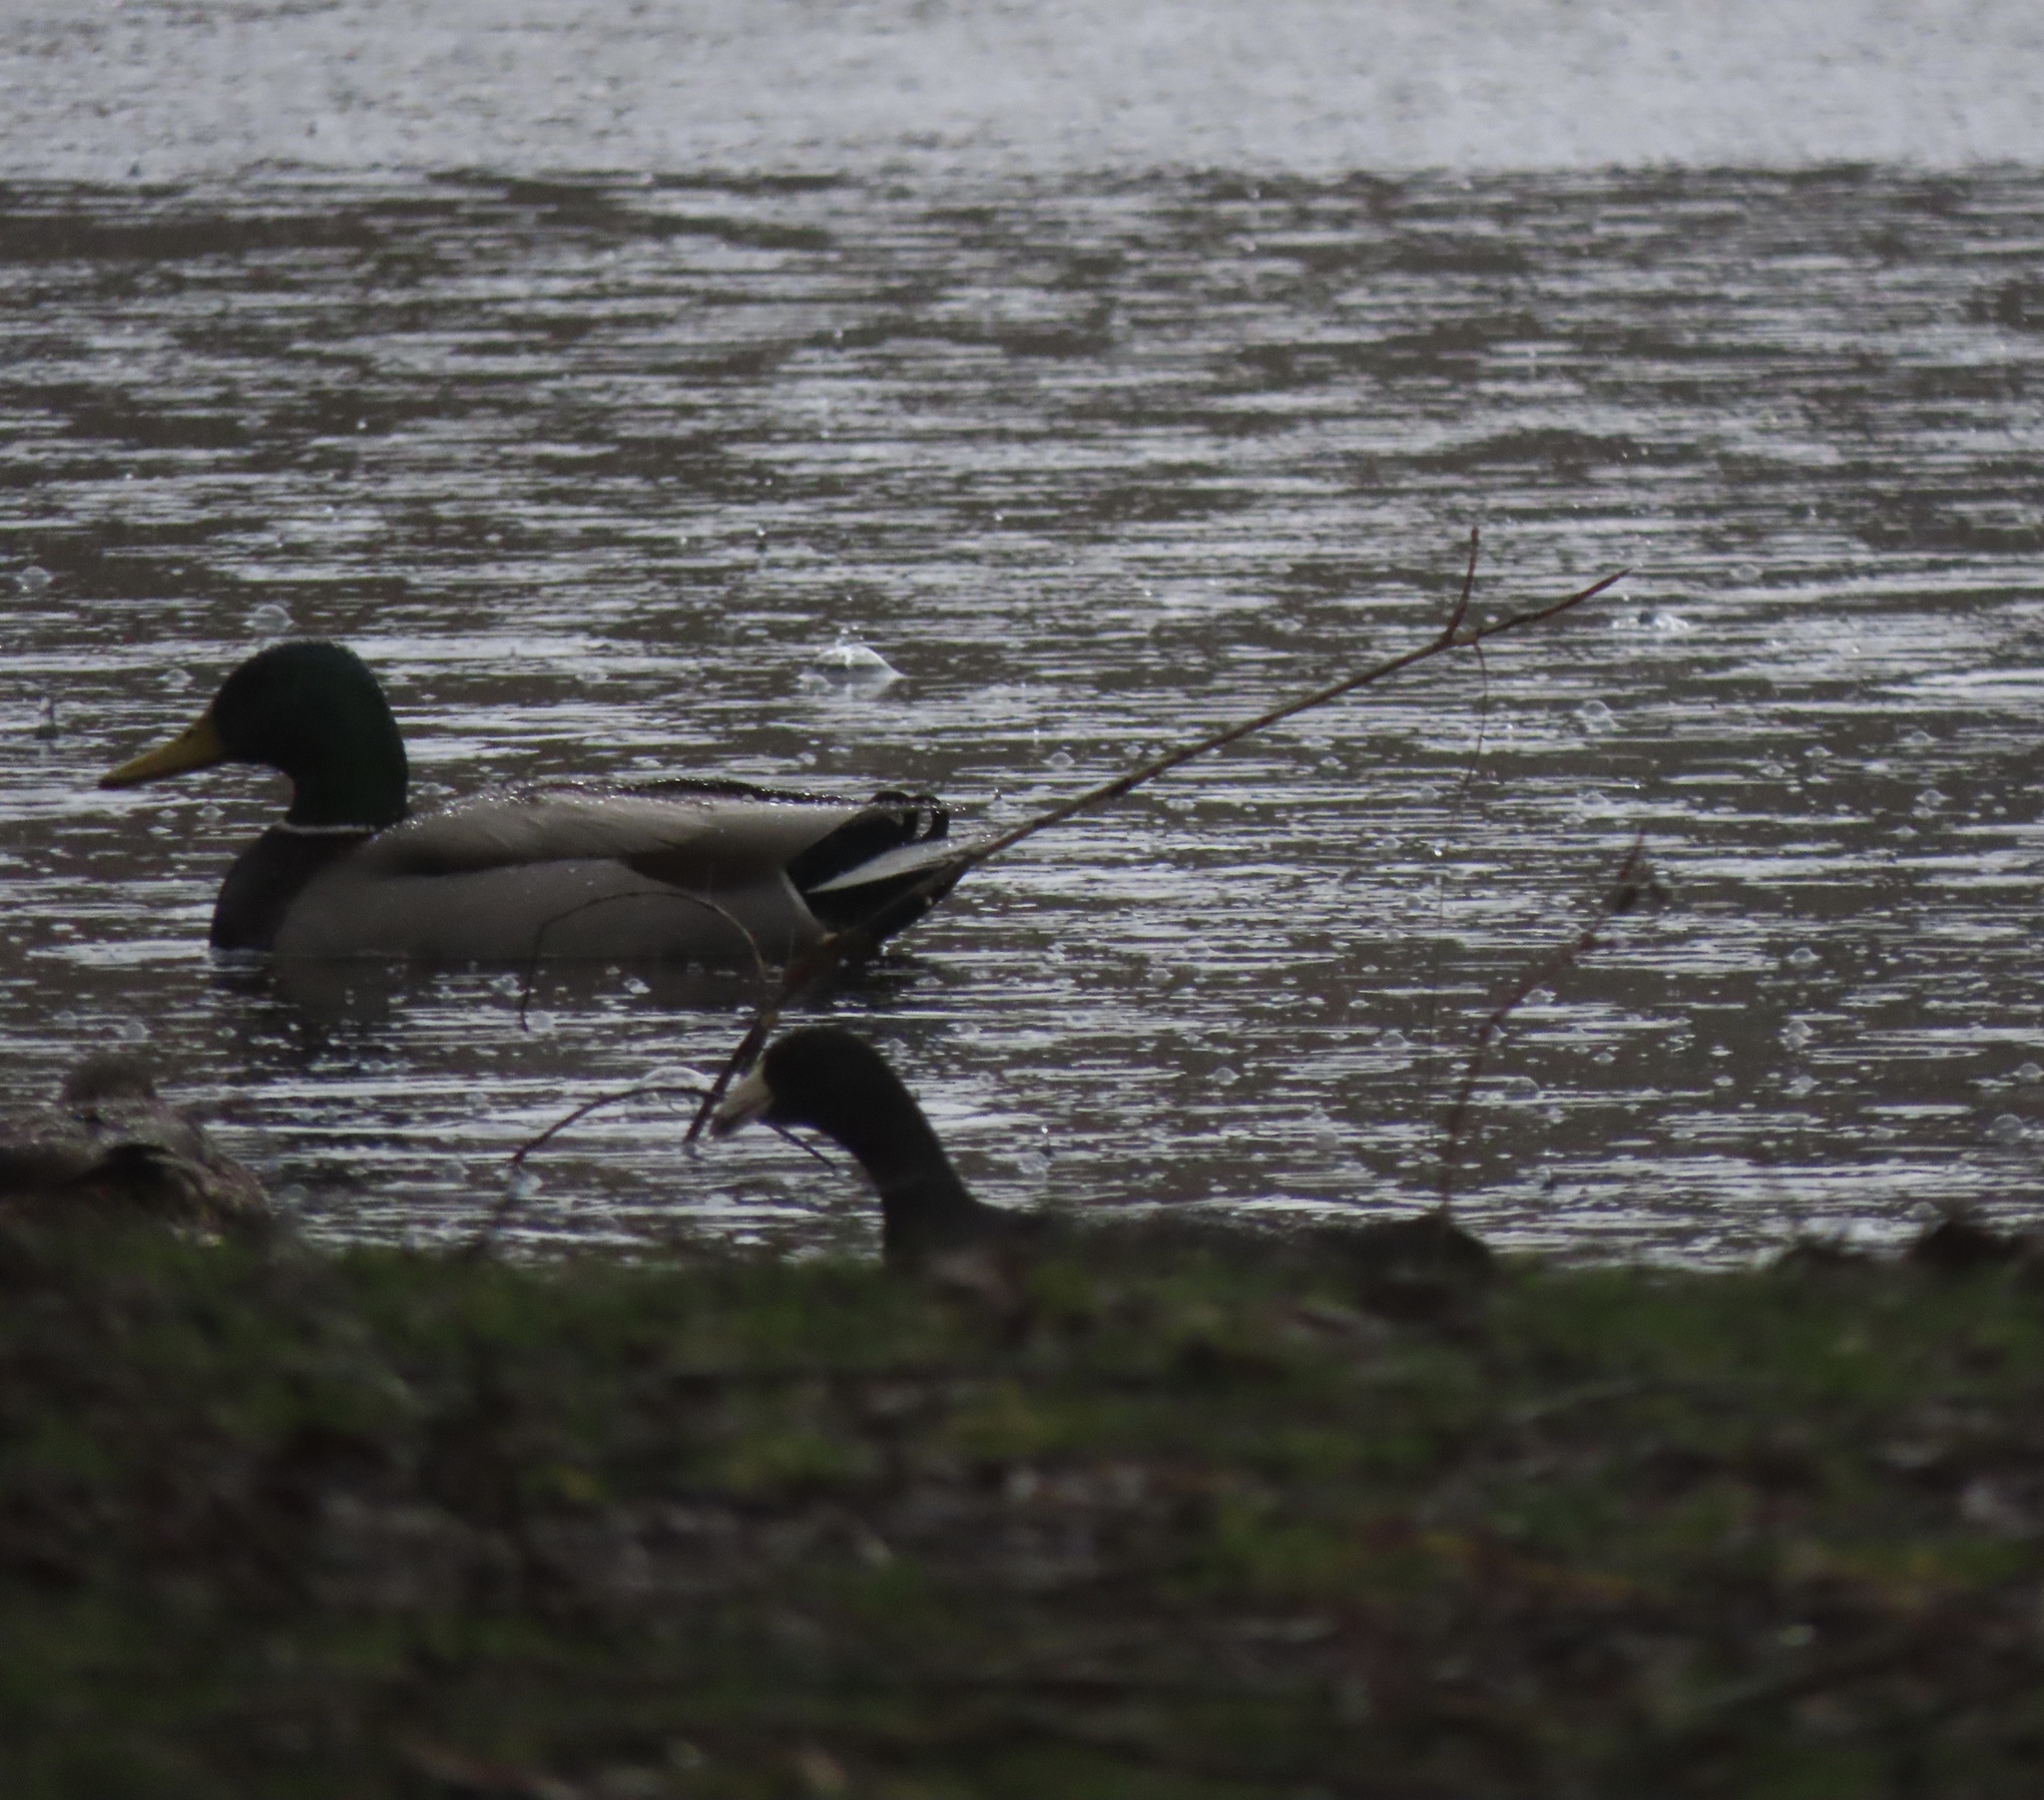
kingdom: Animalia
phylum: Chordata
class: Aves
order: Gruiformes
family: Rallidae
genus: Fulica
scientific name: Fulica americana
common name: American coot
